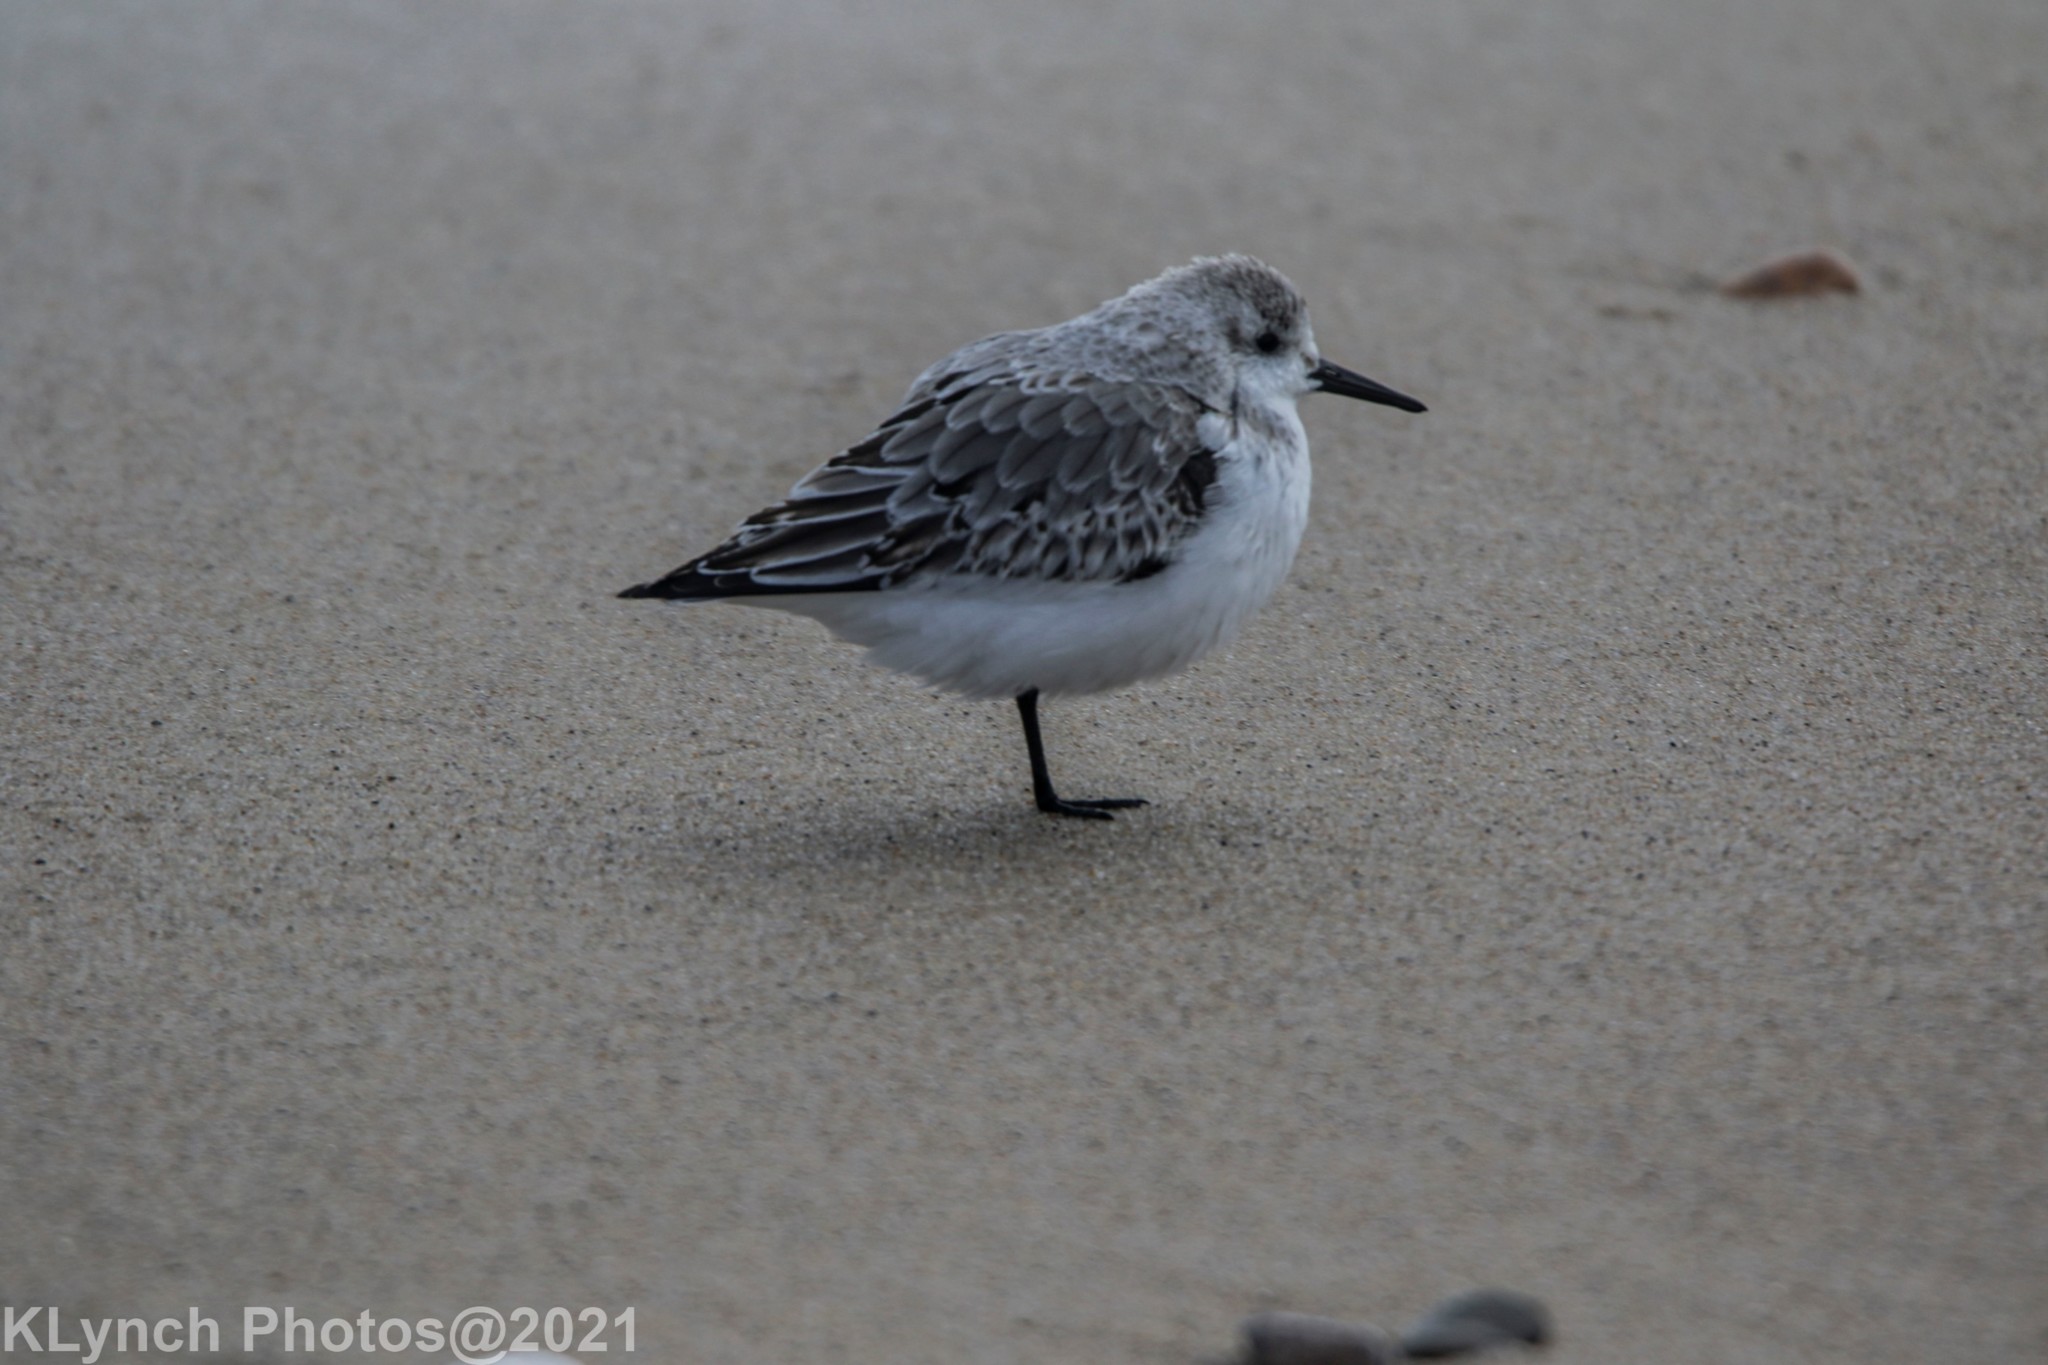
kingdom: Animalia
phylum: Chordata
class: Aves
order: Charadriiformes
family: Scolopacidae
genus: Calidris
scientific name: Calidris alba
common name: Sanderling
